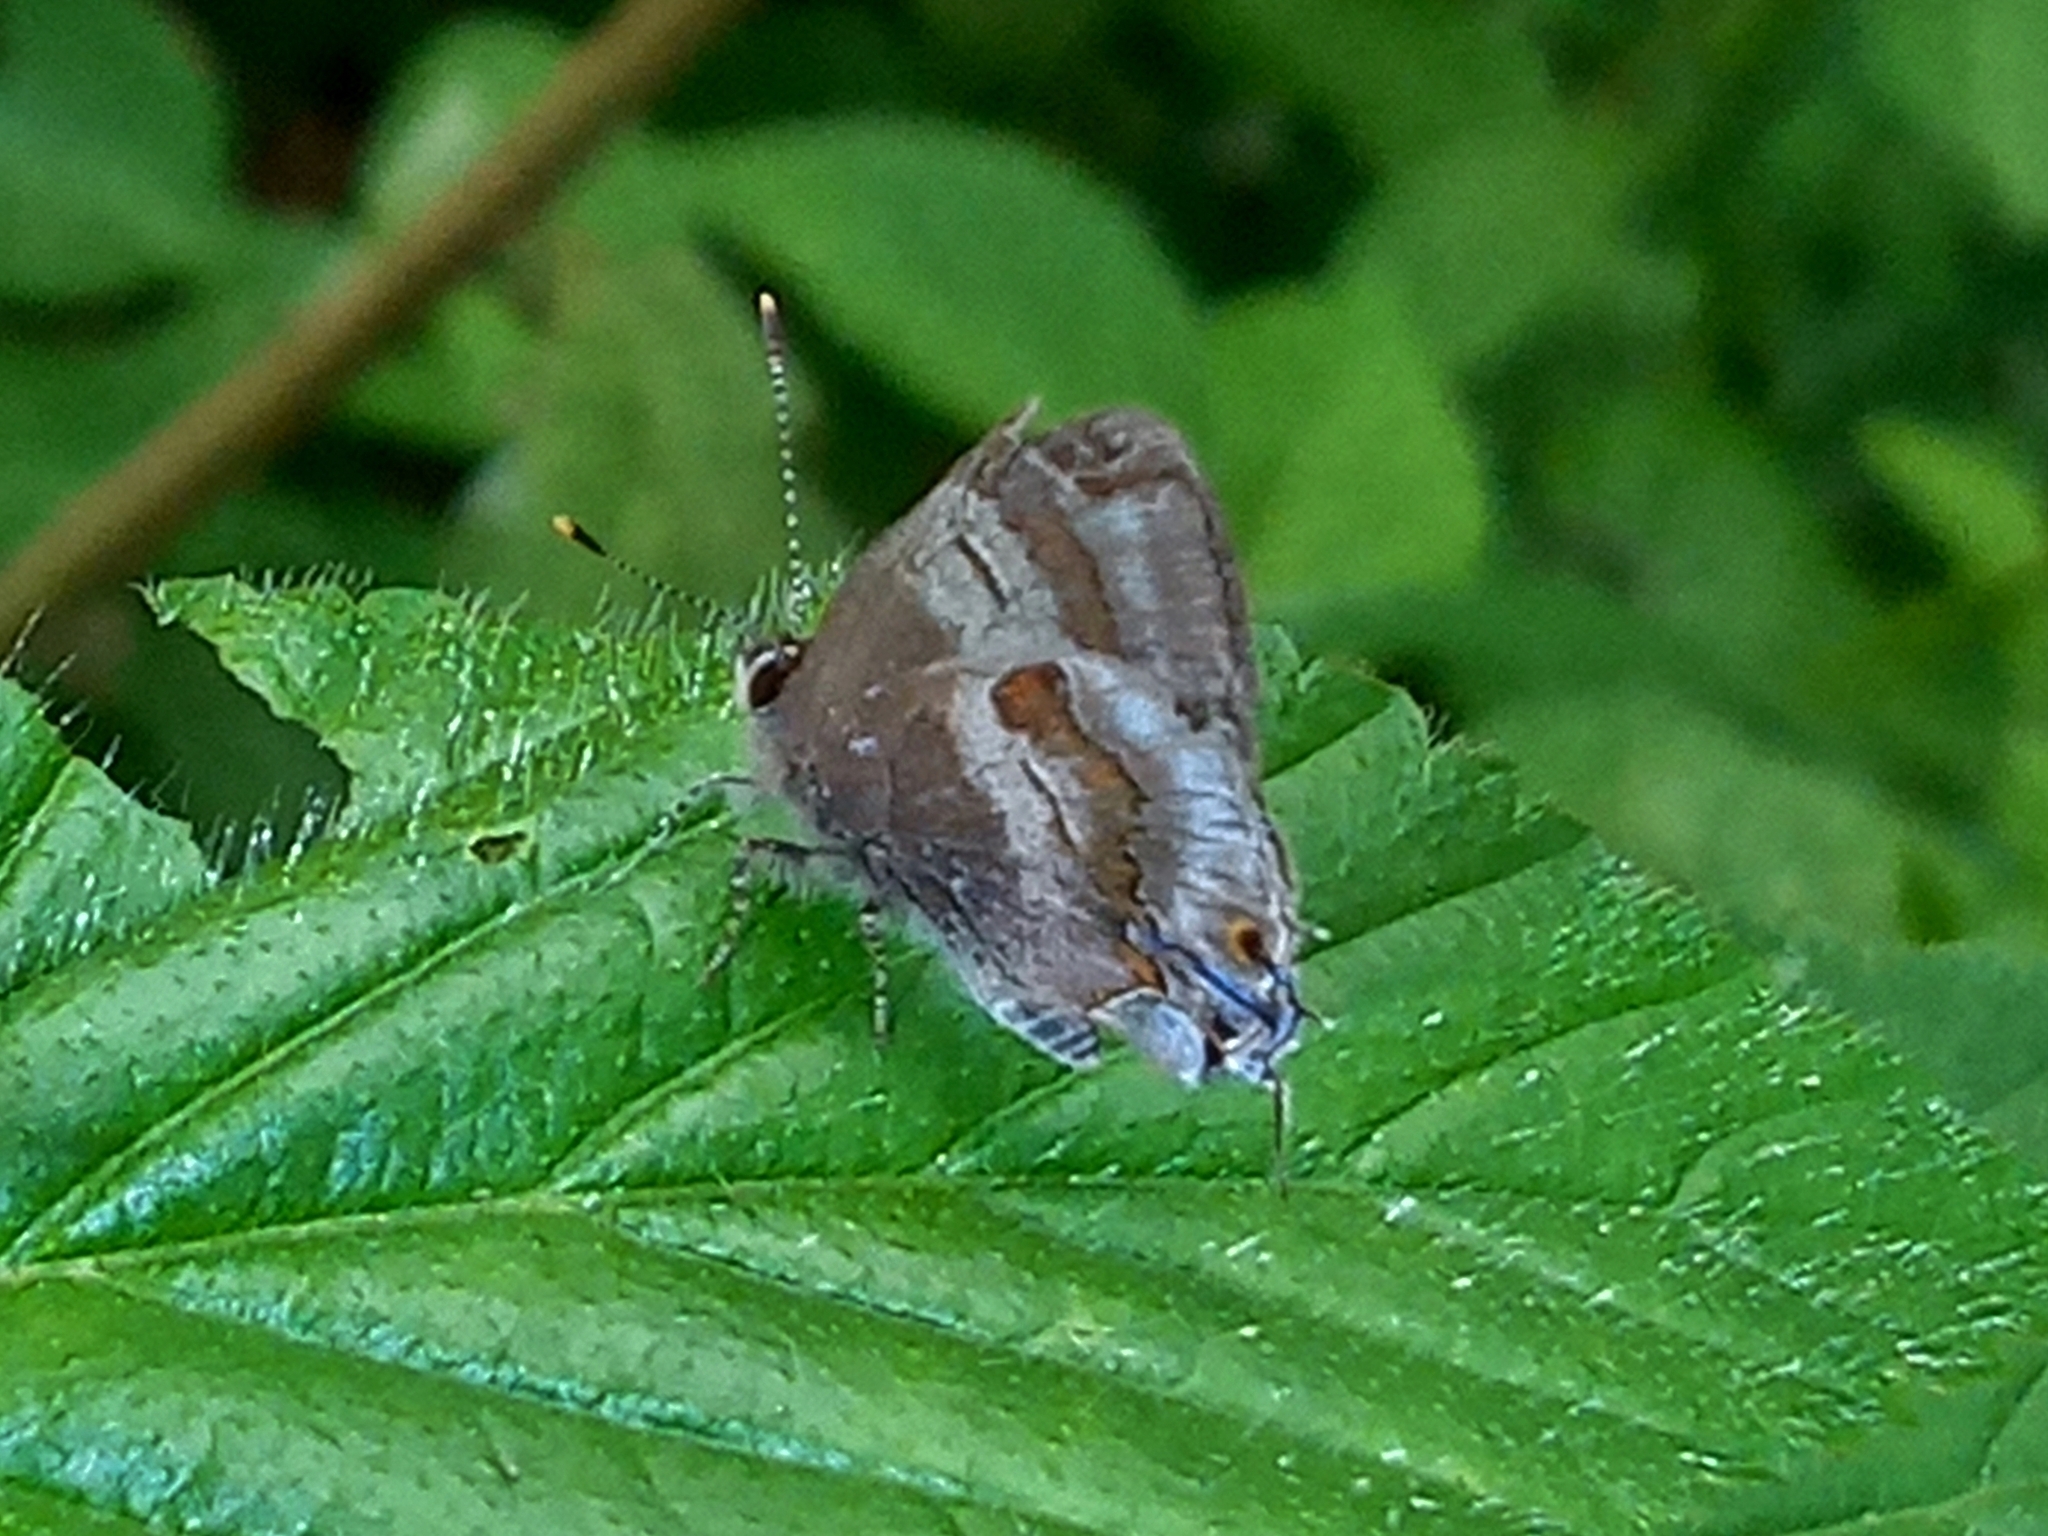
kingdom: Animalia
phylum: Arthropoda
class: Insecta
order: Lepidoptera
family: Lycaenidae
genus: Thecla
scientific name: Thecla ecbatana
